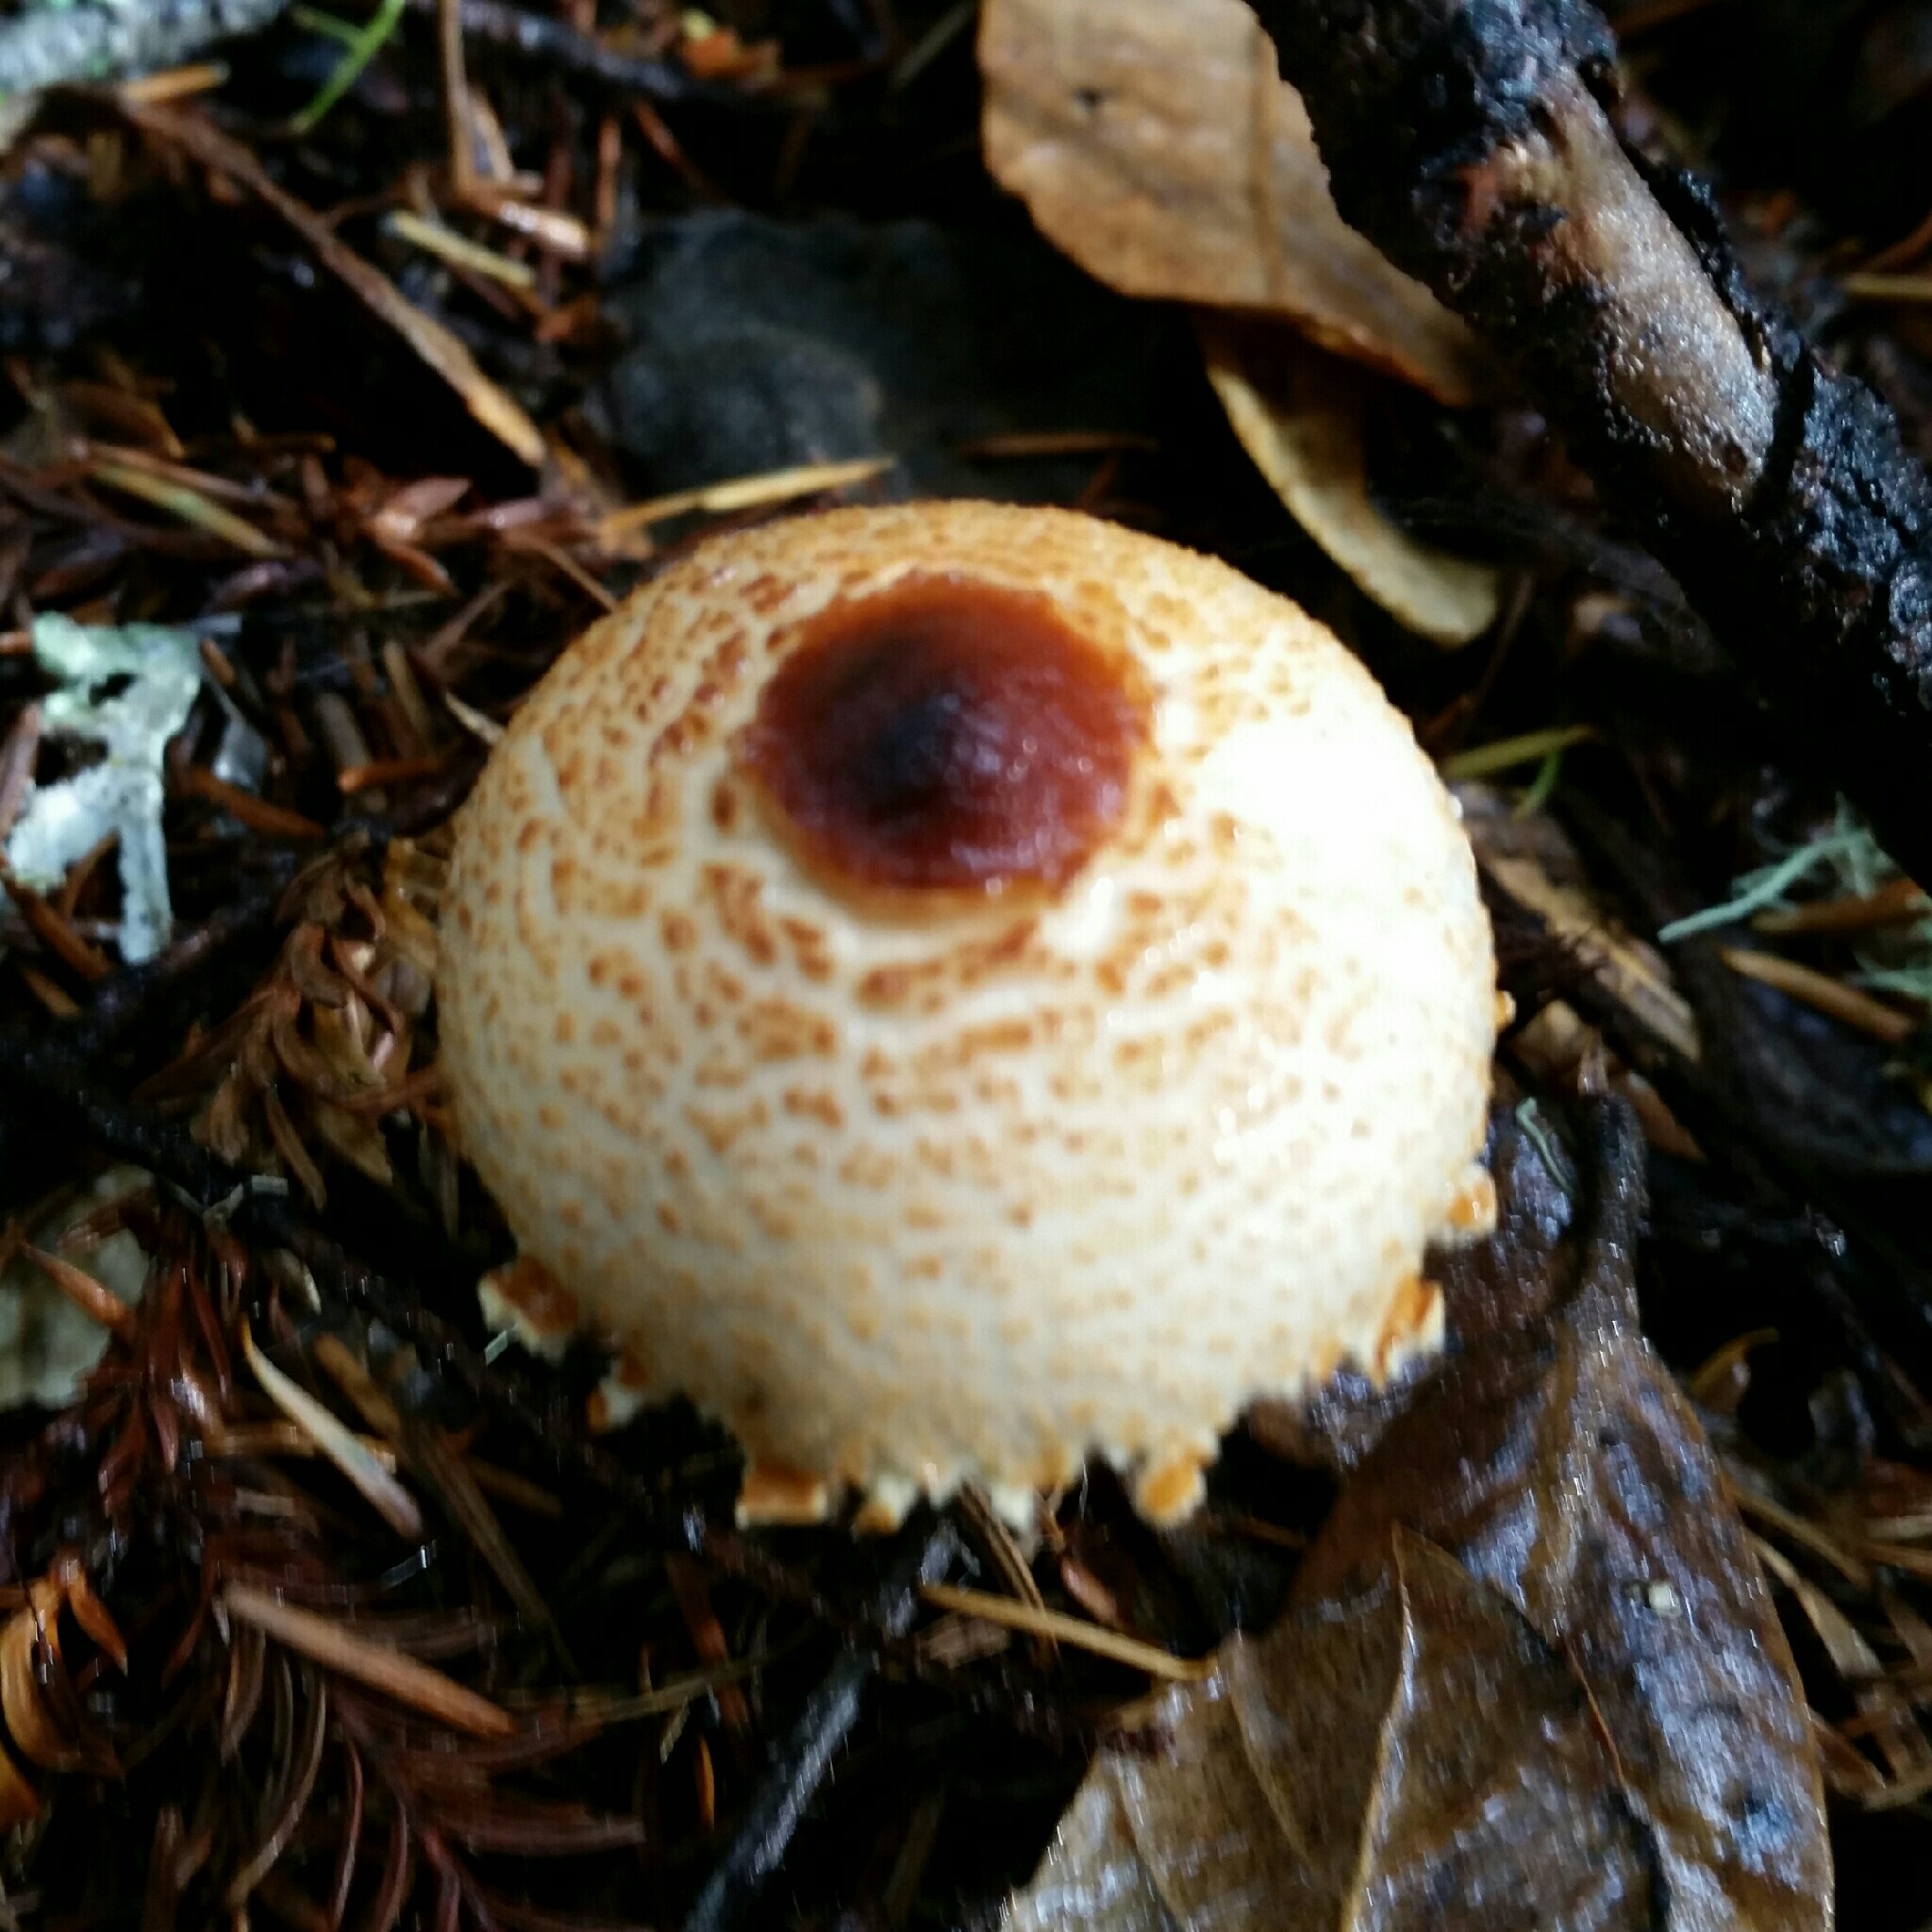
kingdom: Fungi
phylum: Basidiomycota
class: Agaricomycetes
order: Agaricales
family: Agaricaceae
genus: Lepiota
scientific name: Lepiota magnispora
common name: Yellowfoot dapperling
